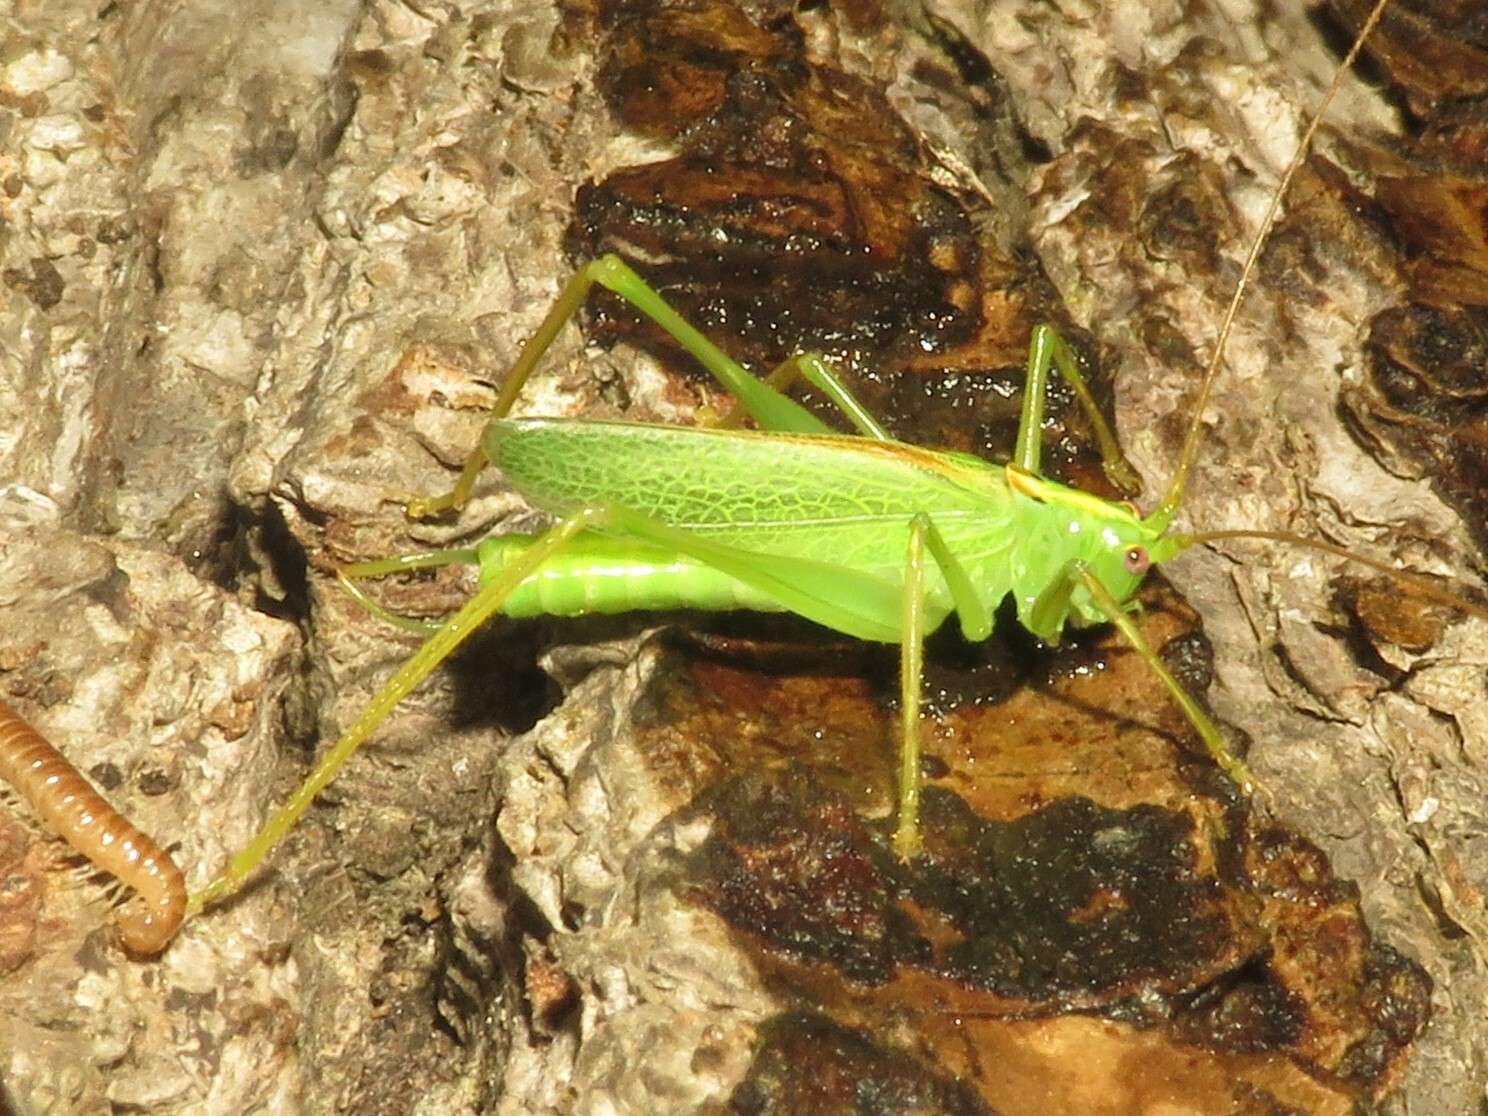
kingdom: Animalia
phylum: Arthropoda
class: Insecta
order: Orthoptera
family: Tettigoniidae
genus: Meconema
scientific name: Meconema thalassinum
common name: Oak bush-cricket
